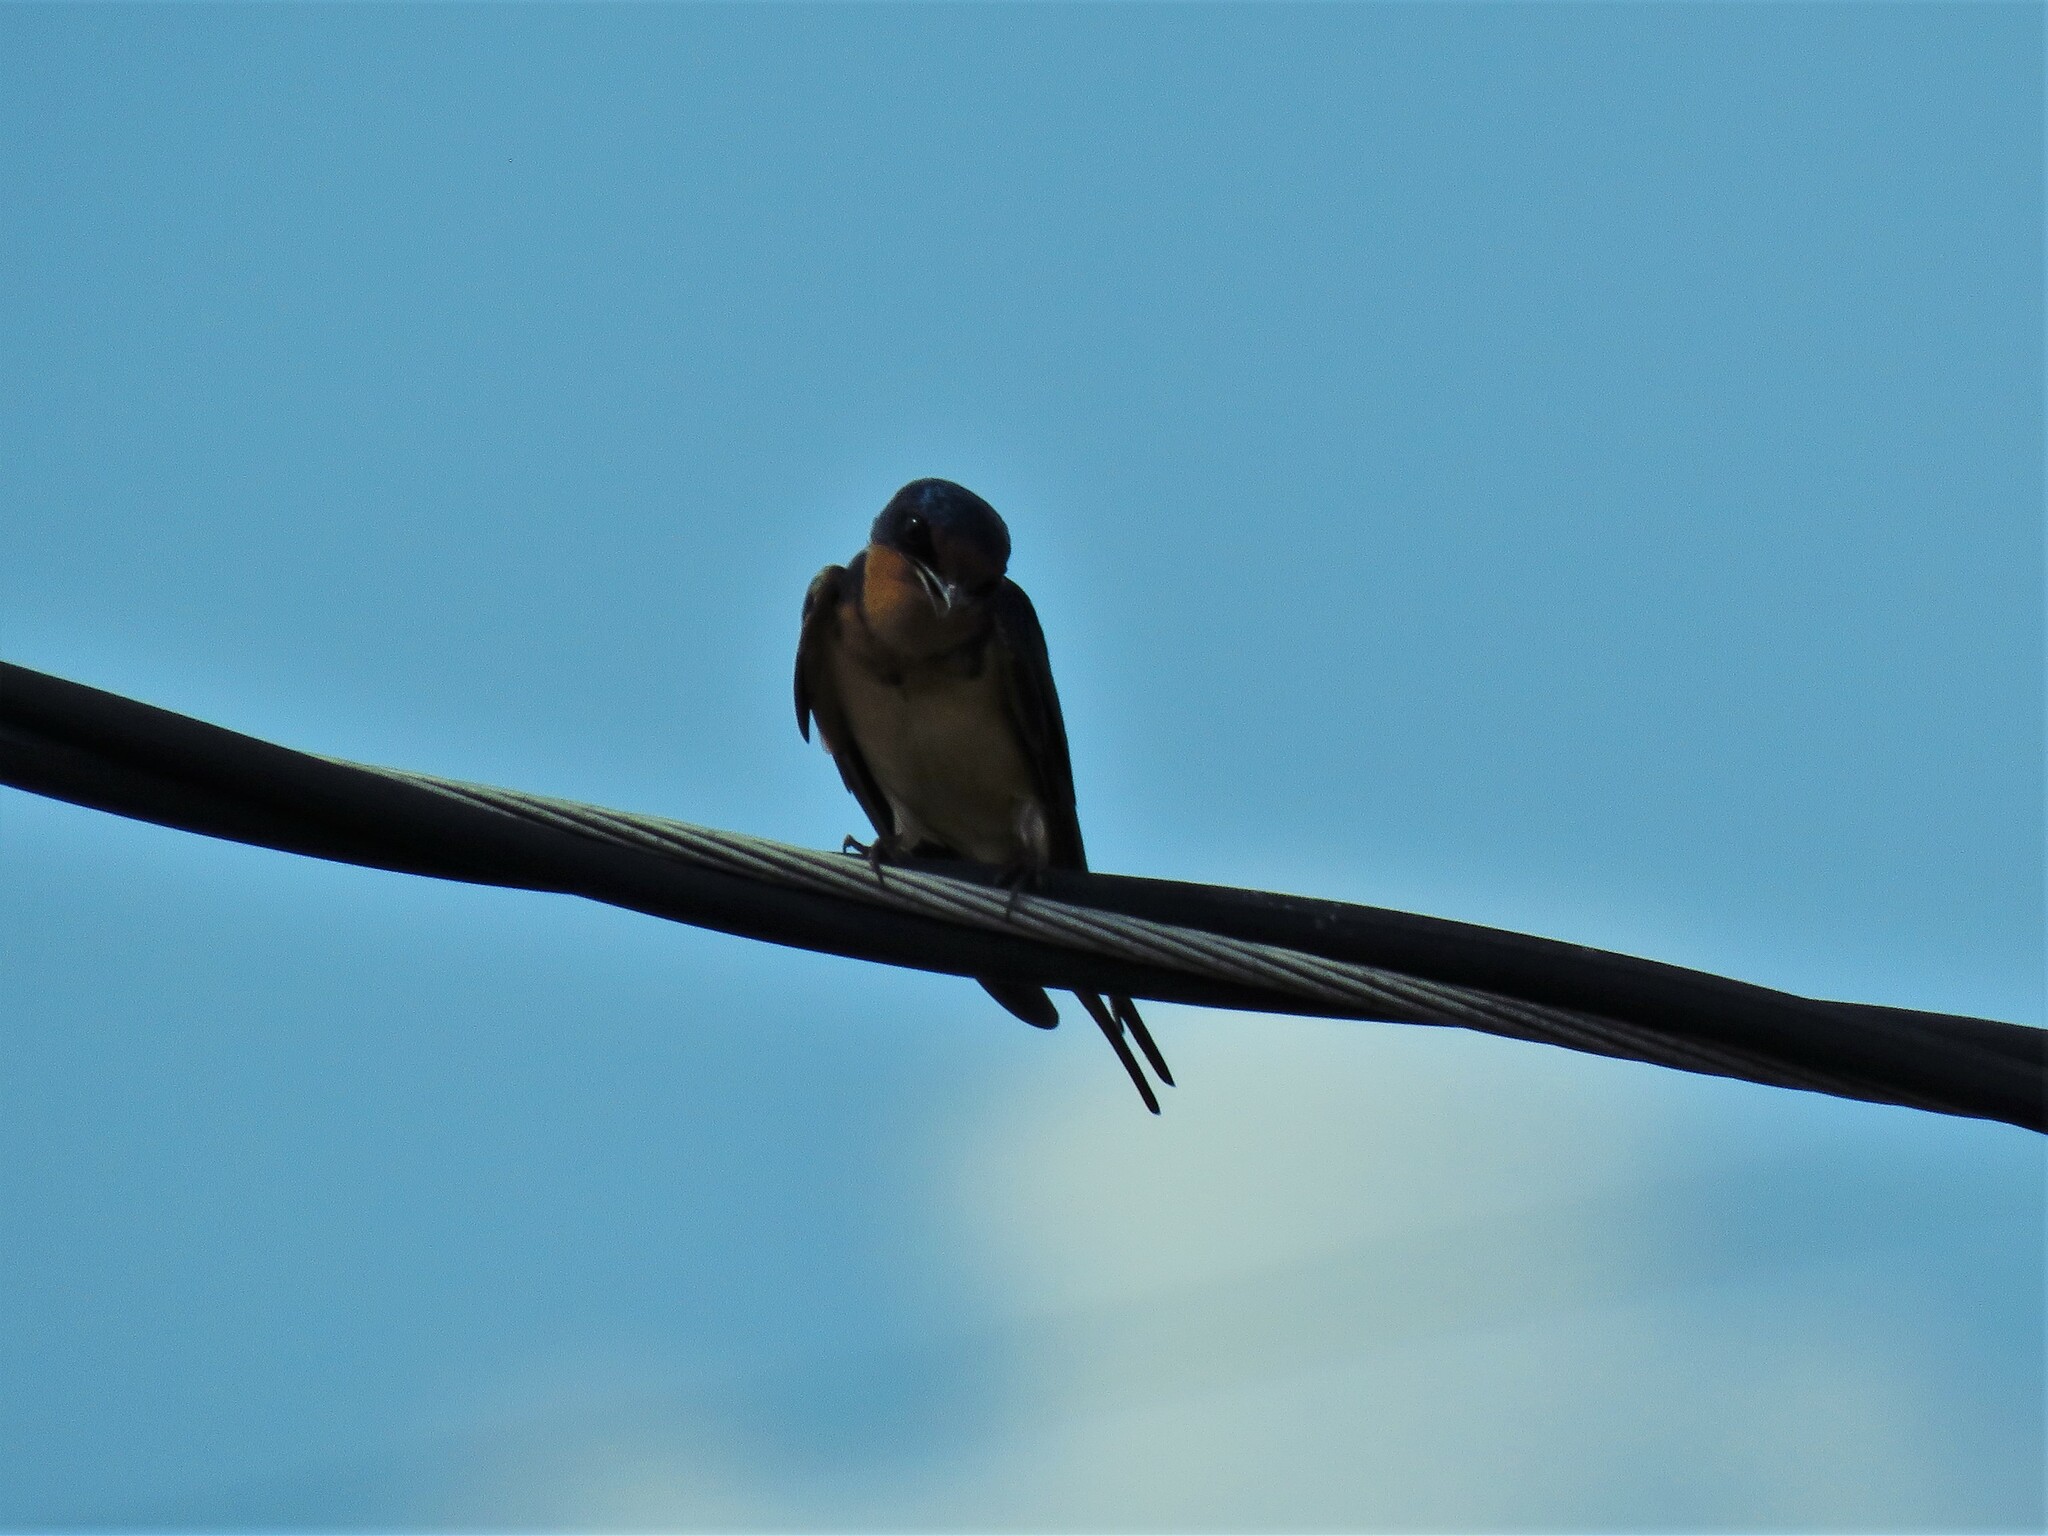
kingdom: Animalia
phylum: Chordata
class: Aves
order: Passeriformes
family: Hirundinidae
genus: Hirundo
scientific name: Hirundo rustica
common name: Barn swallow
